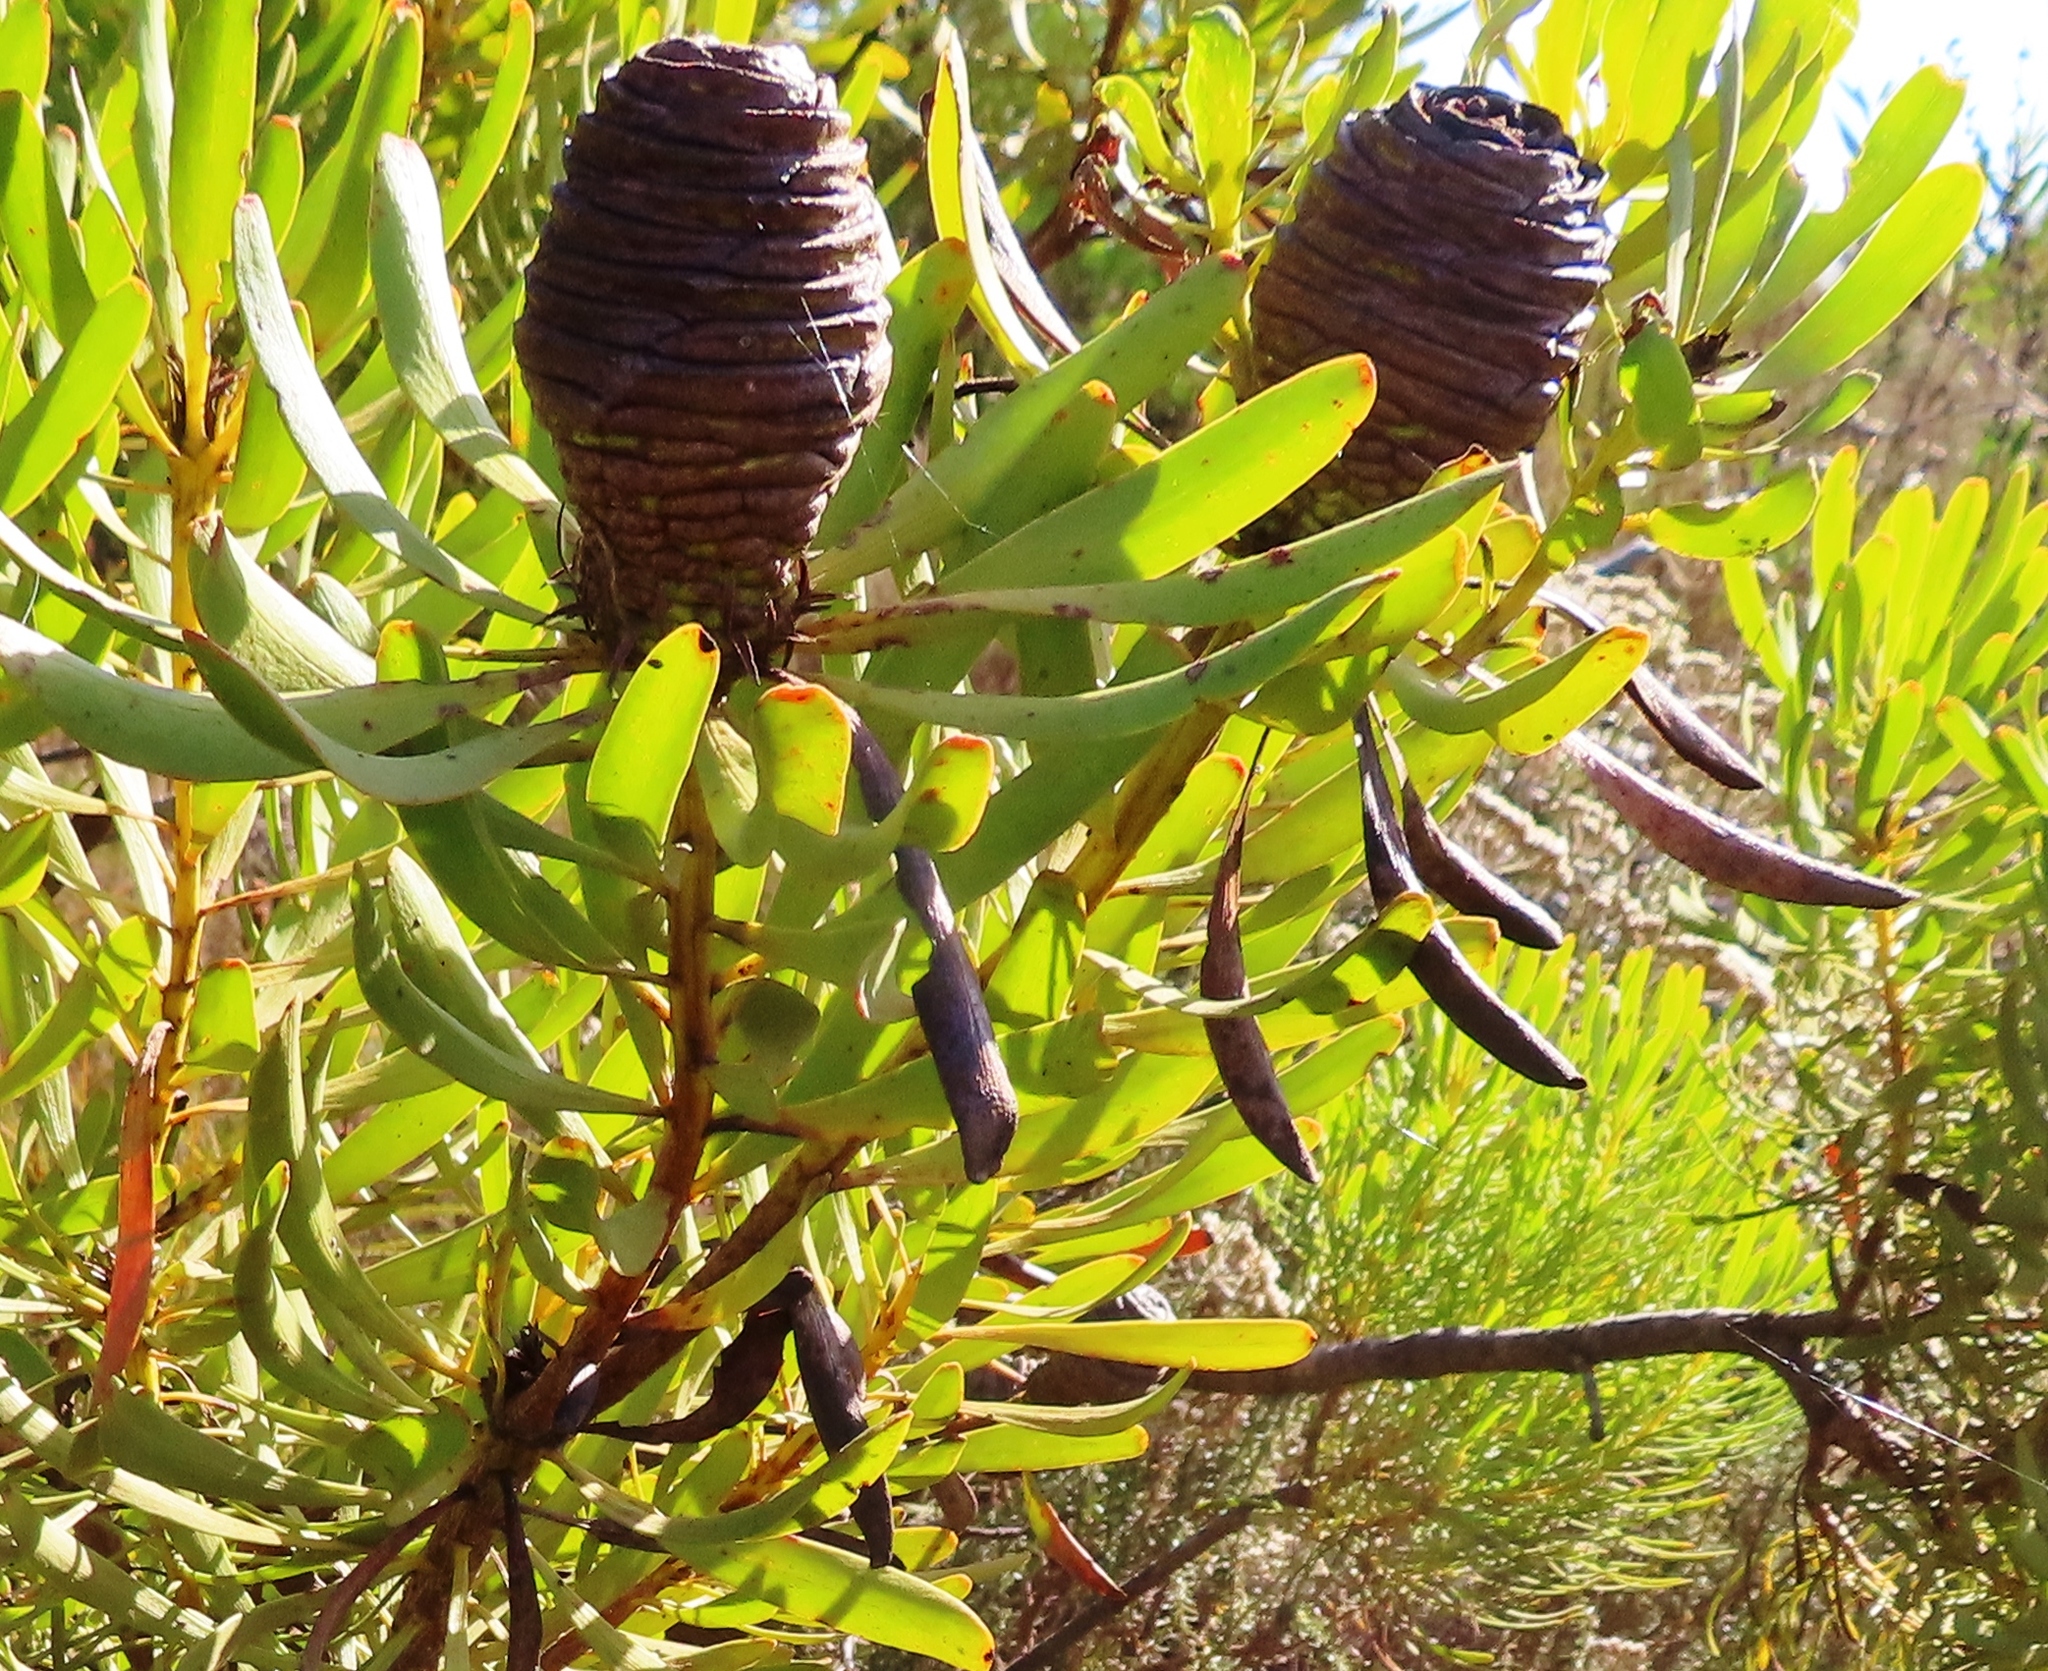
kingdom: Plantae
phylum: Tracheophyta
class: Magnoliopsida
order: Proteales
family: Proteaceae
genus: Leucadendron
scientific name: Leucadendron platyspermum
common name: Plate-seed conebush
